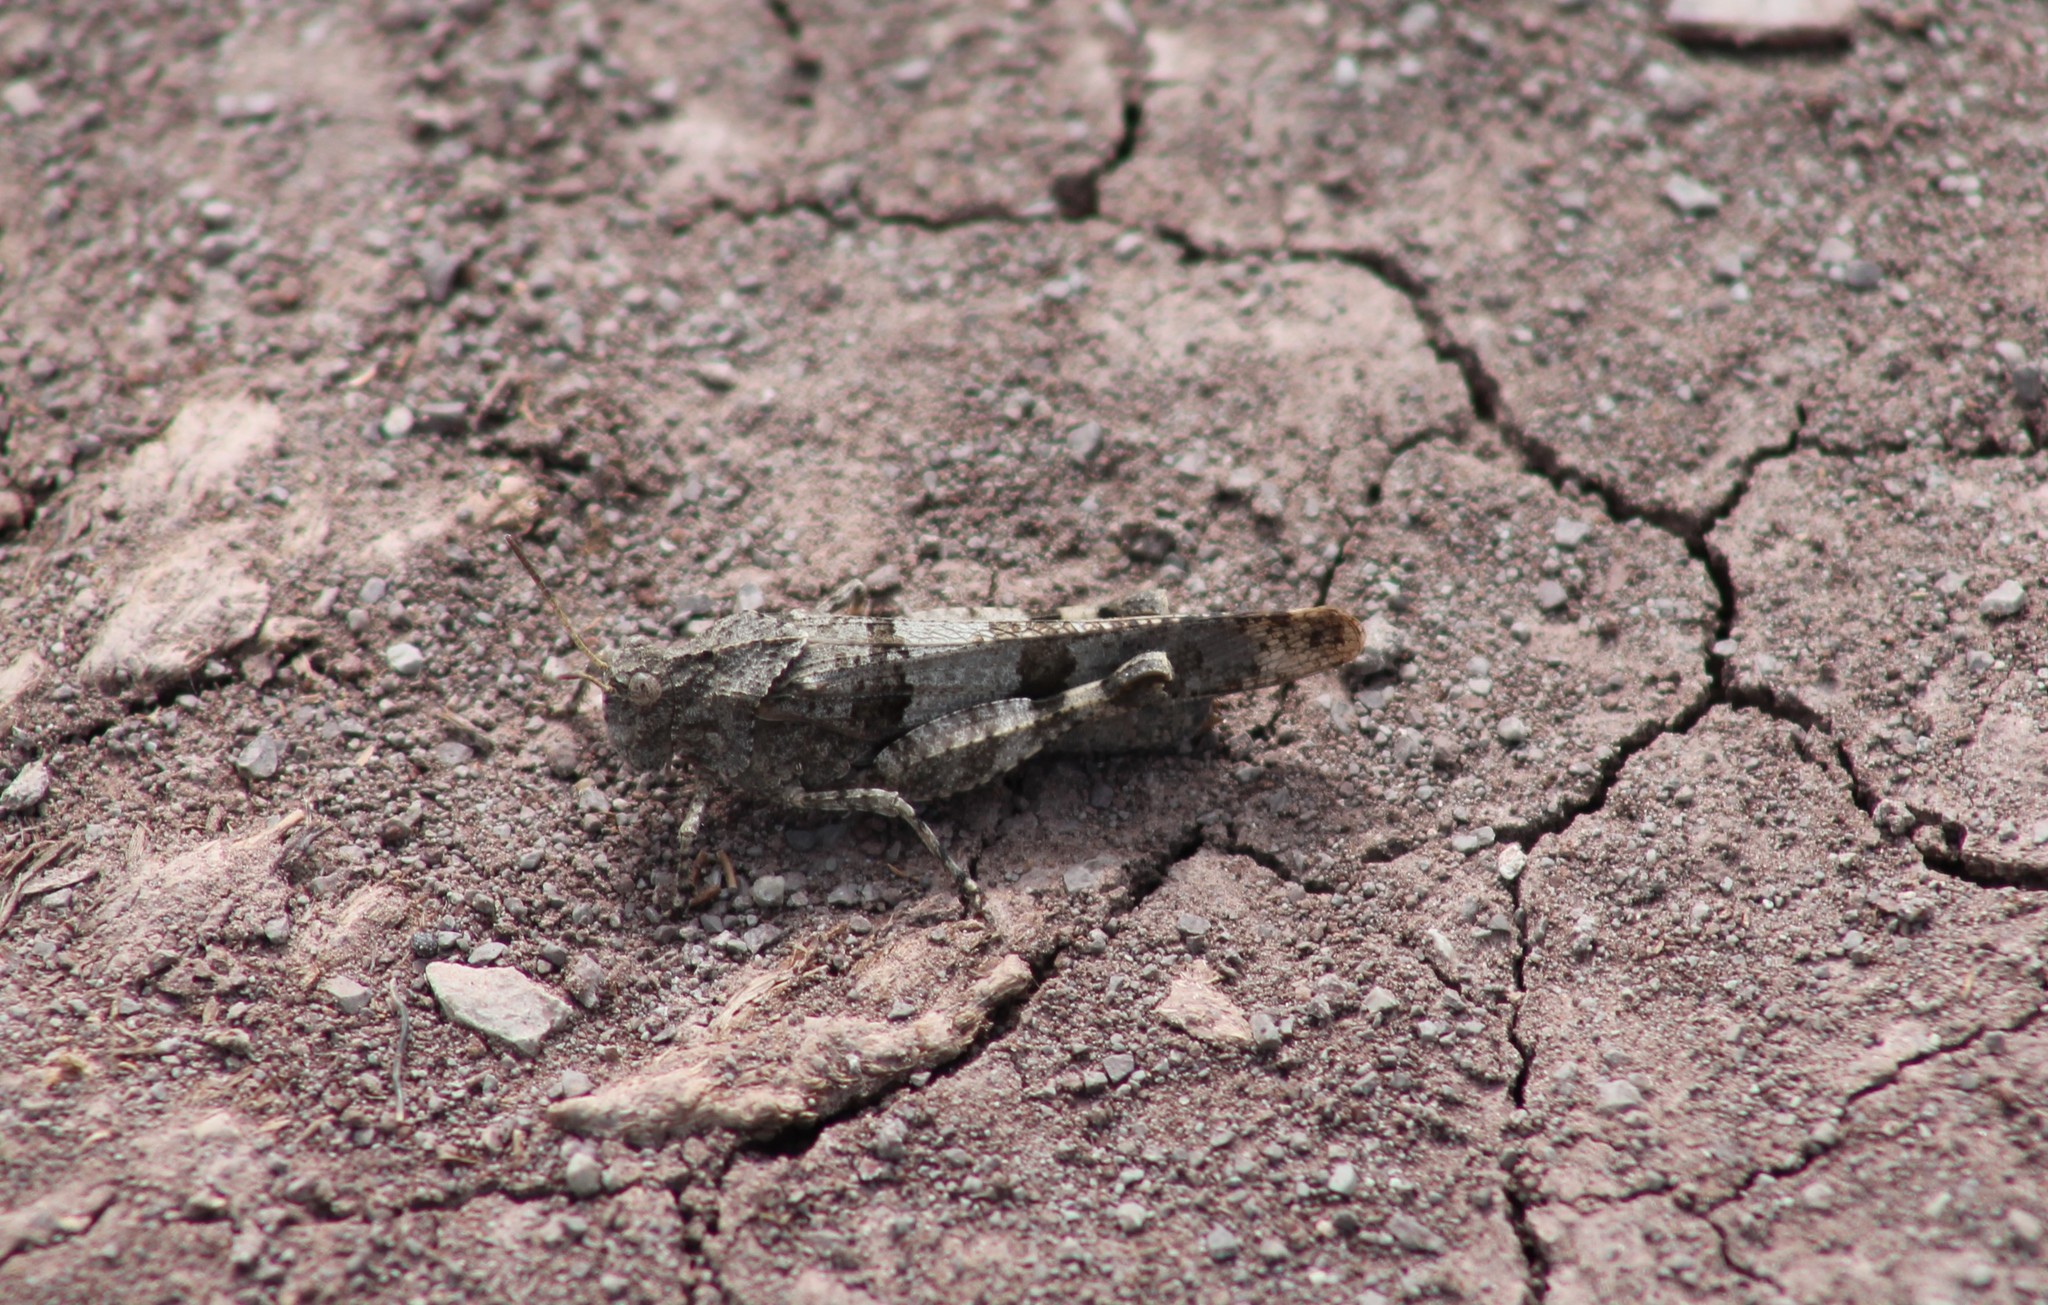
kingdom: Animalia
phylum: Arthropoda
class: Insecta
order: Orthoptera
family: Acrididae
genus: Oedipoda
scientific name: Oedipoda caerulescens
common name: Blue-winged grasshopper
